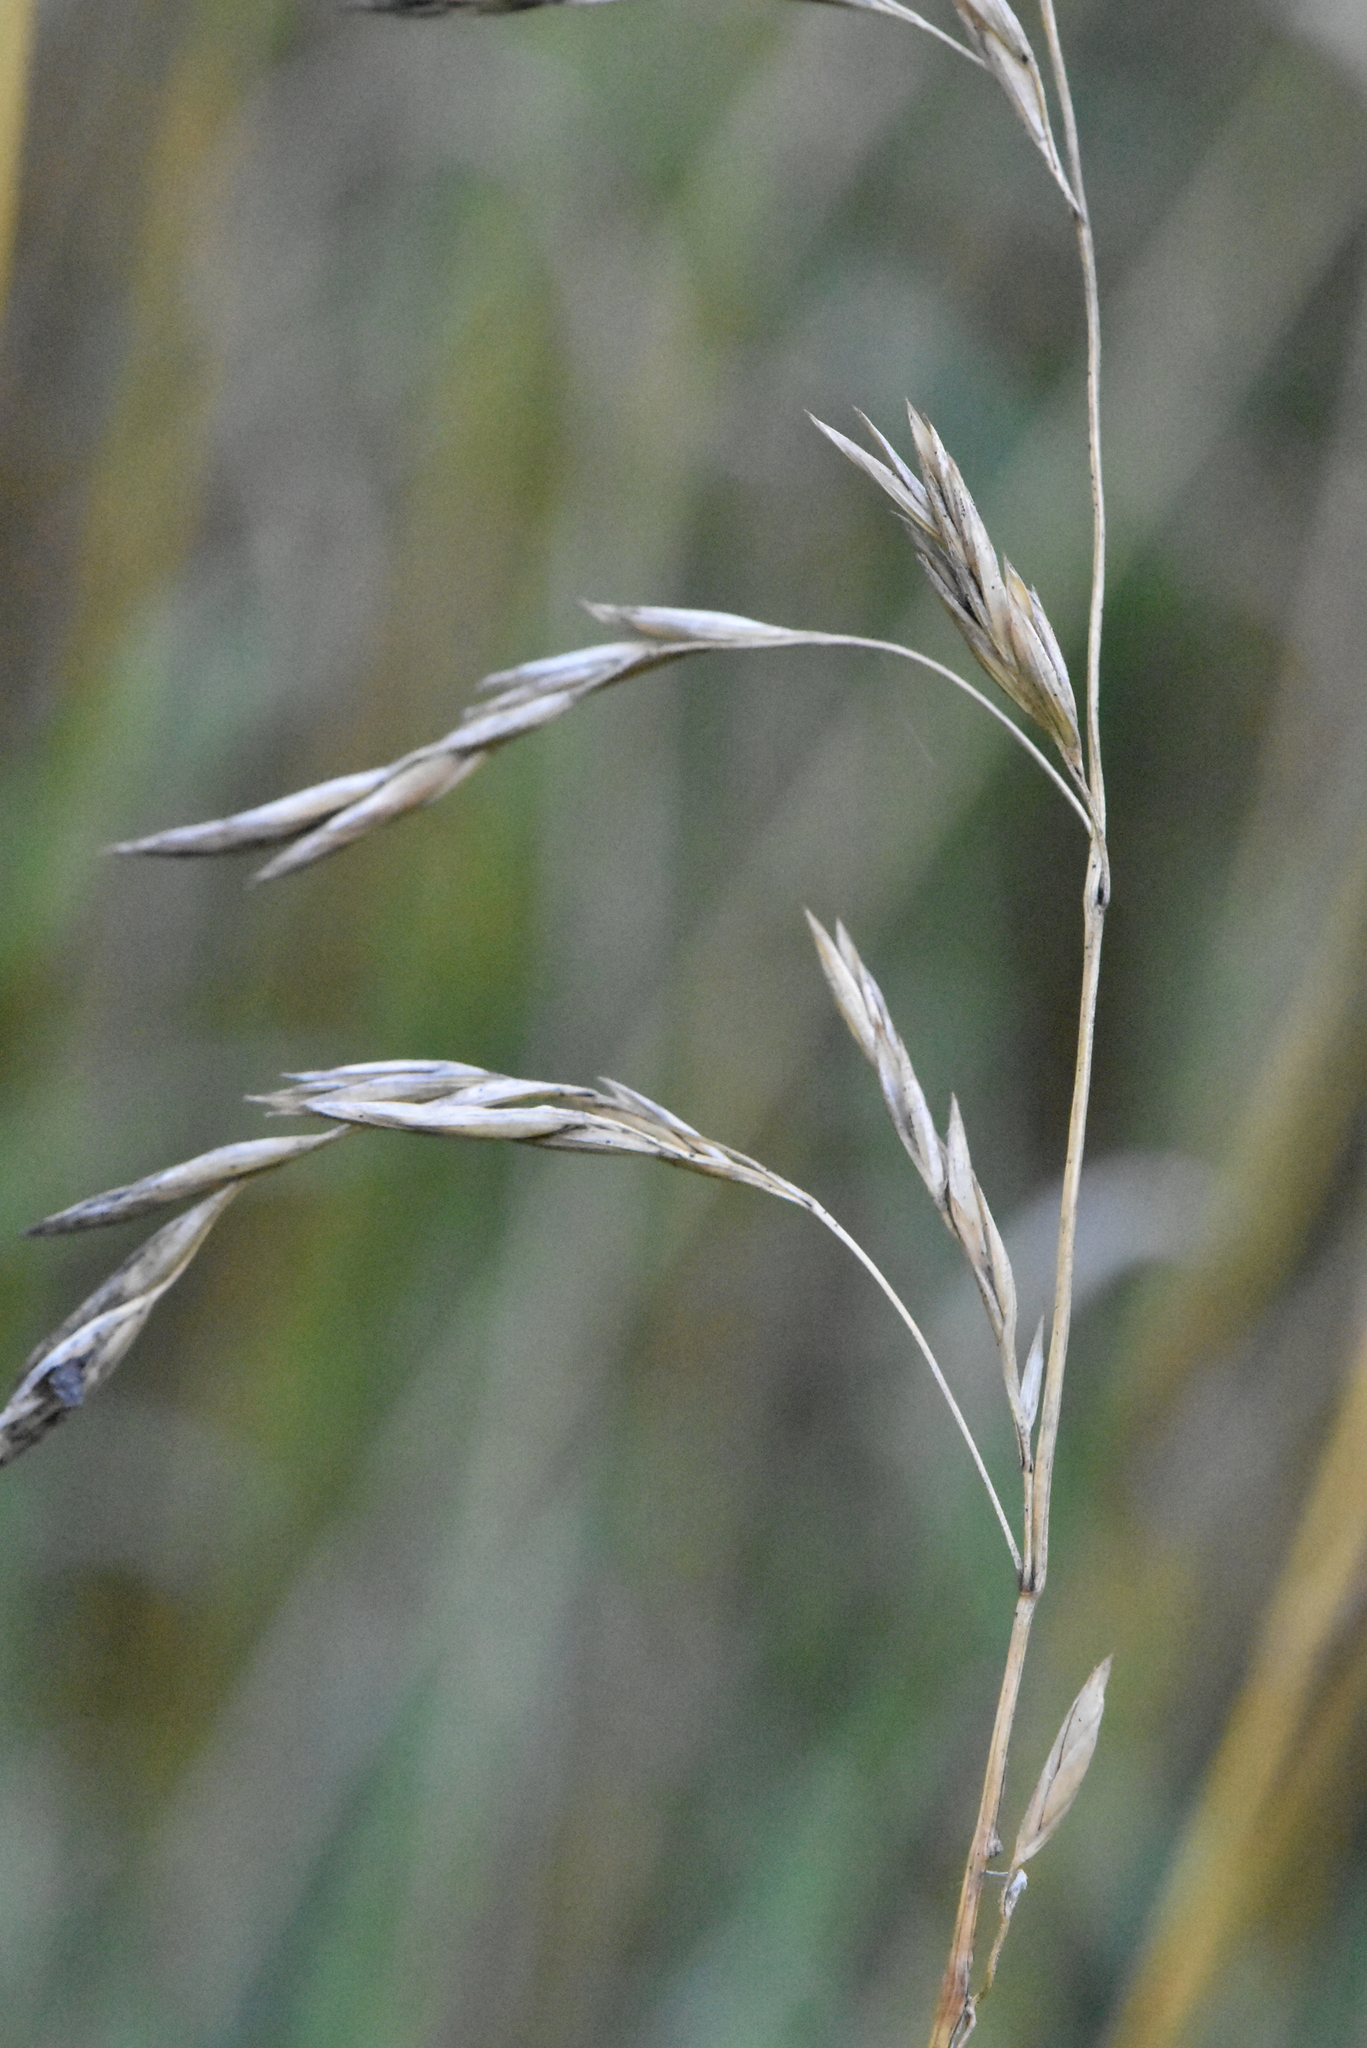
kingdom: Plantae
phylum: Tracheophyta
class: Liliopsida
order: Poales
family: Poaceae
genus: Lolium
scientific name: Lolium arundinaceum
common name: Reed fescue
